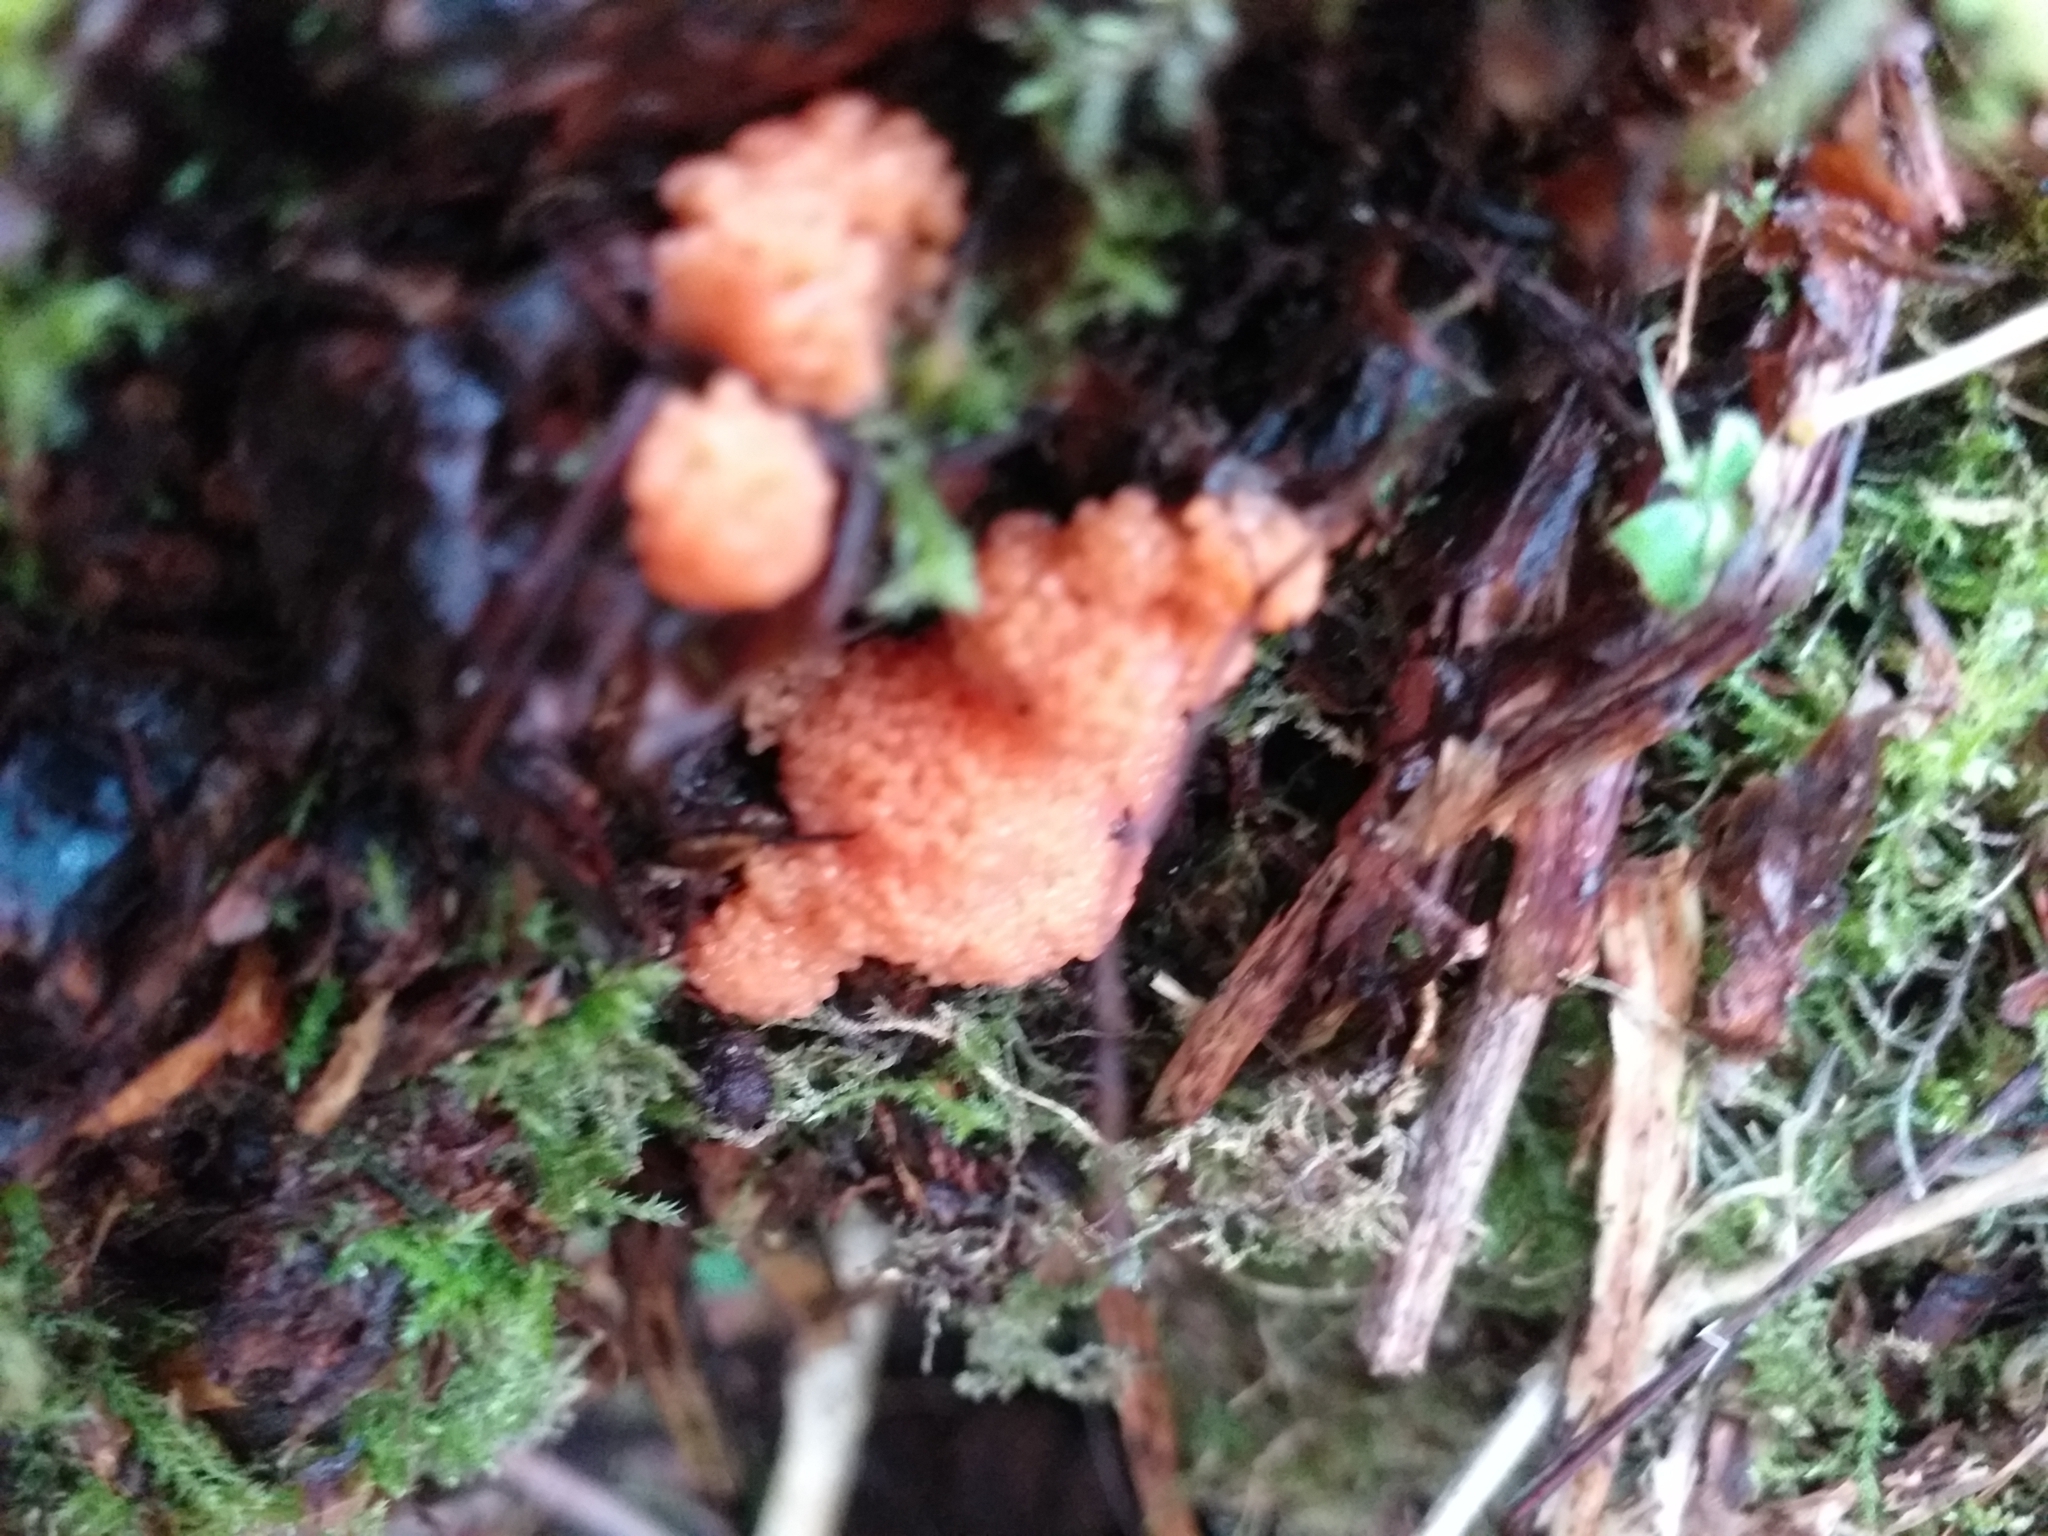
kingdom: Protozoa
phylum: Mycetozoa
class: Myxomycetes
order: Cribrariales
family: Tubiferaceae
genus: Tubifera
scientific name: Tubifera ferruginosa
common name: Red raspberry slime mold
